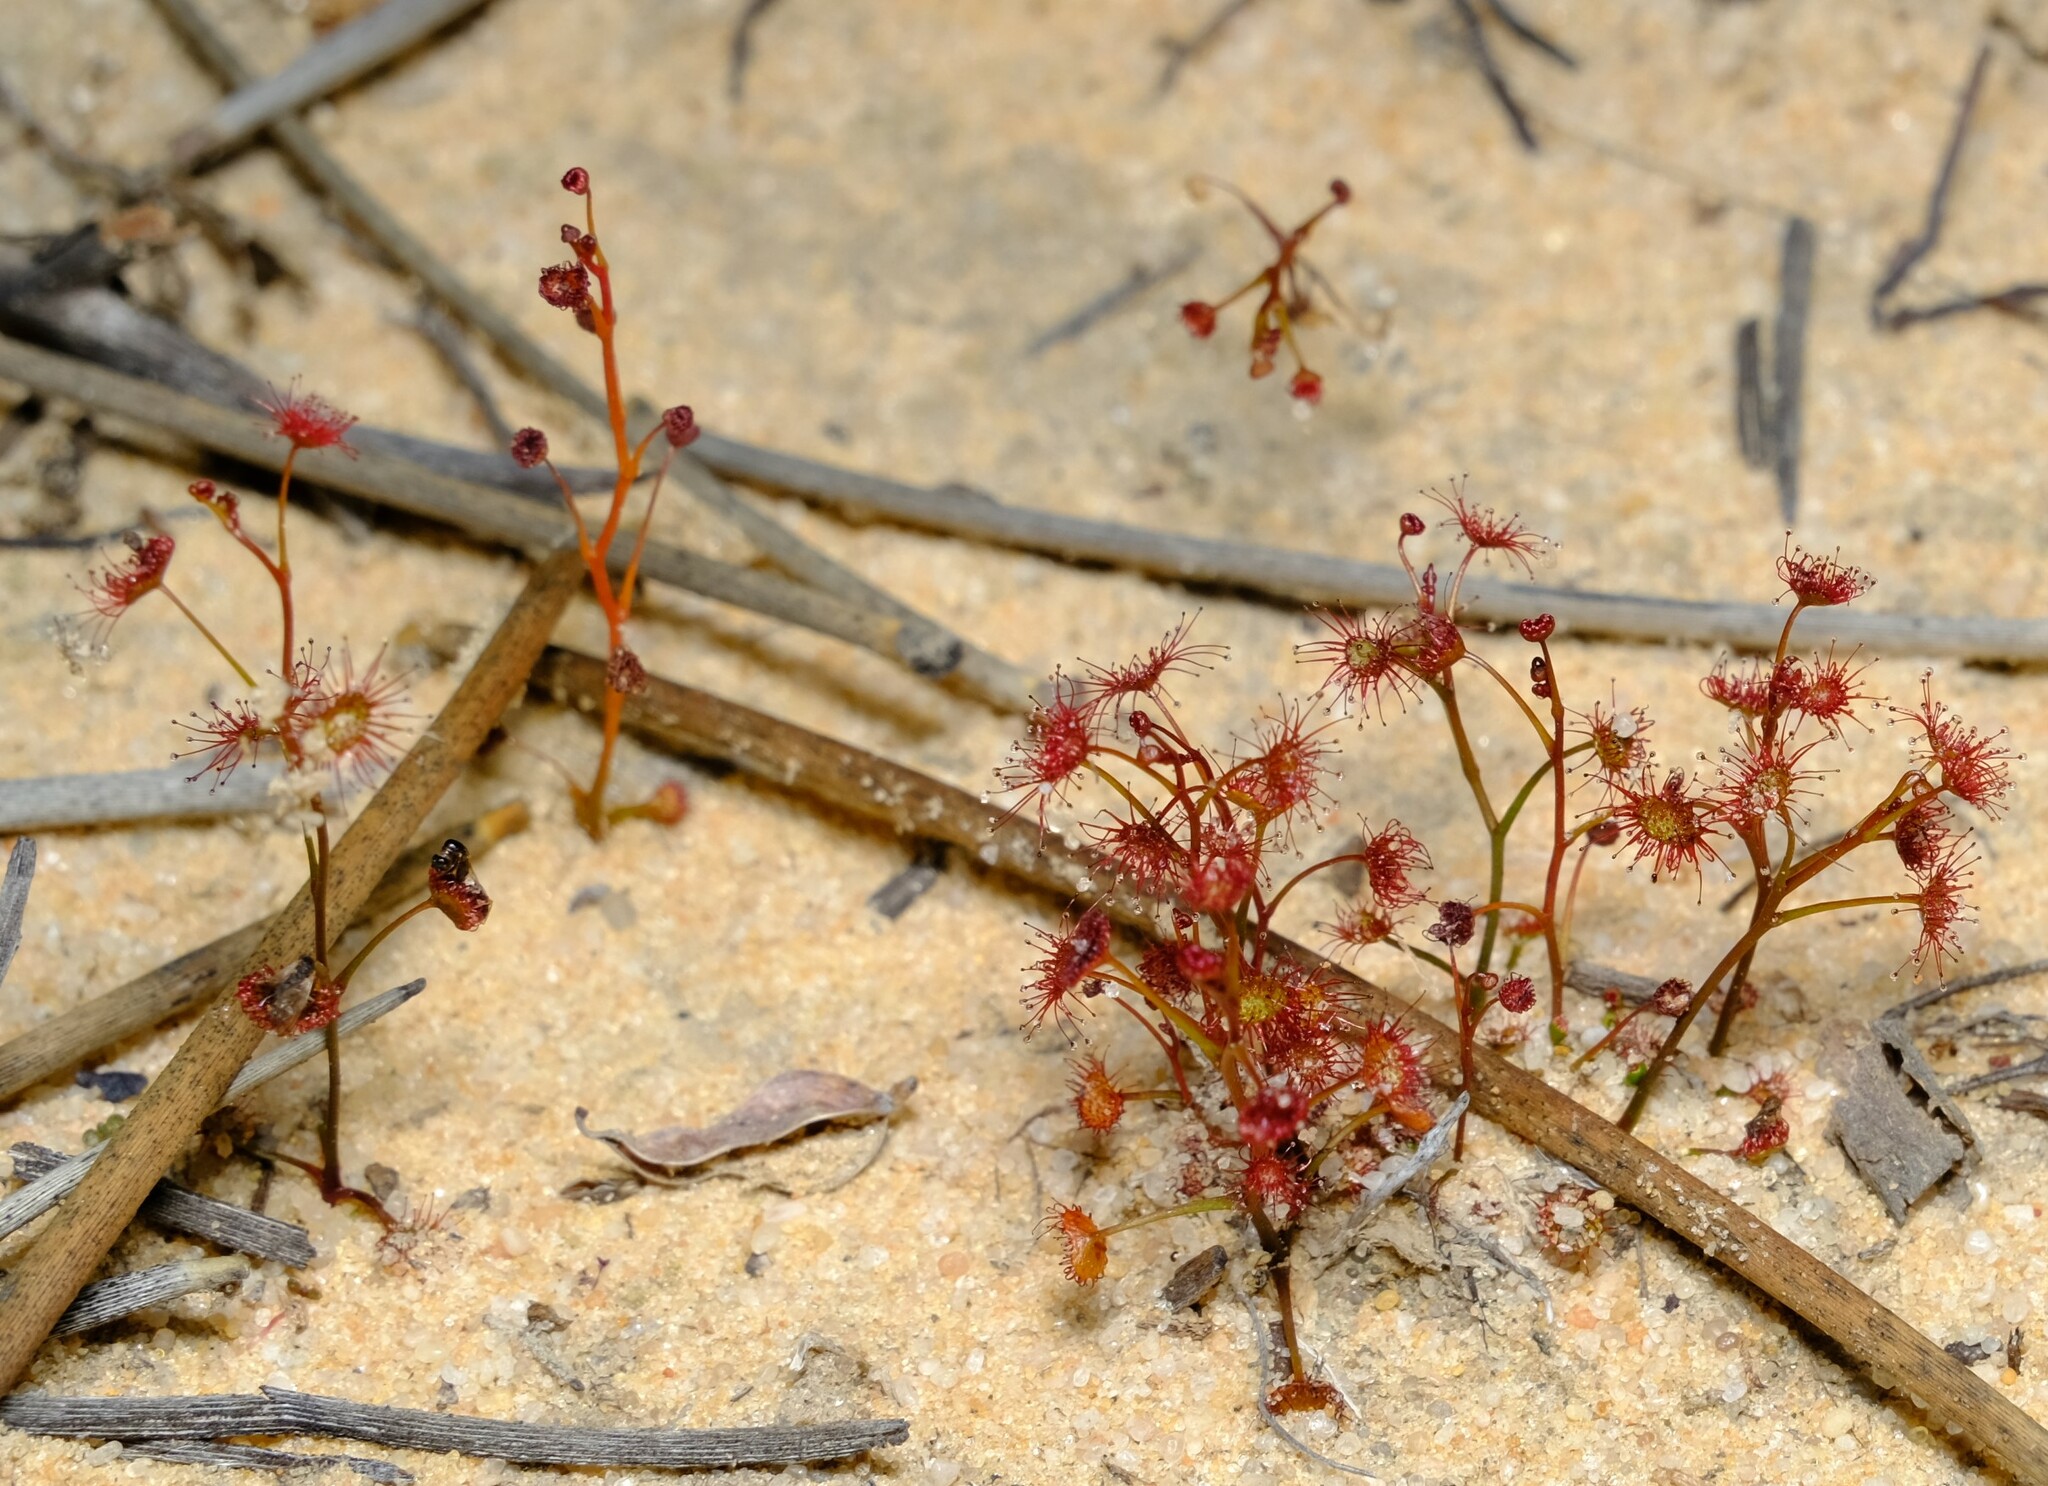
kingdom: Plantae
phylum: Tracheophyta
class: Magnoliopsida
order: Caryophyllales
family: Droseraceae
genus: Drosera
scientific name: Drosera radicans
